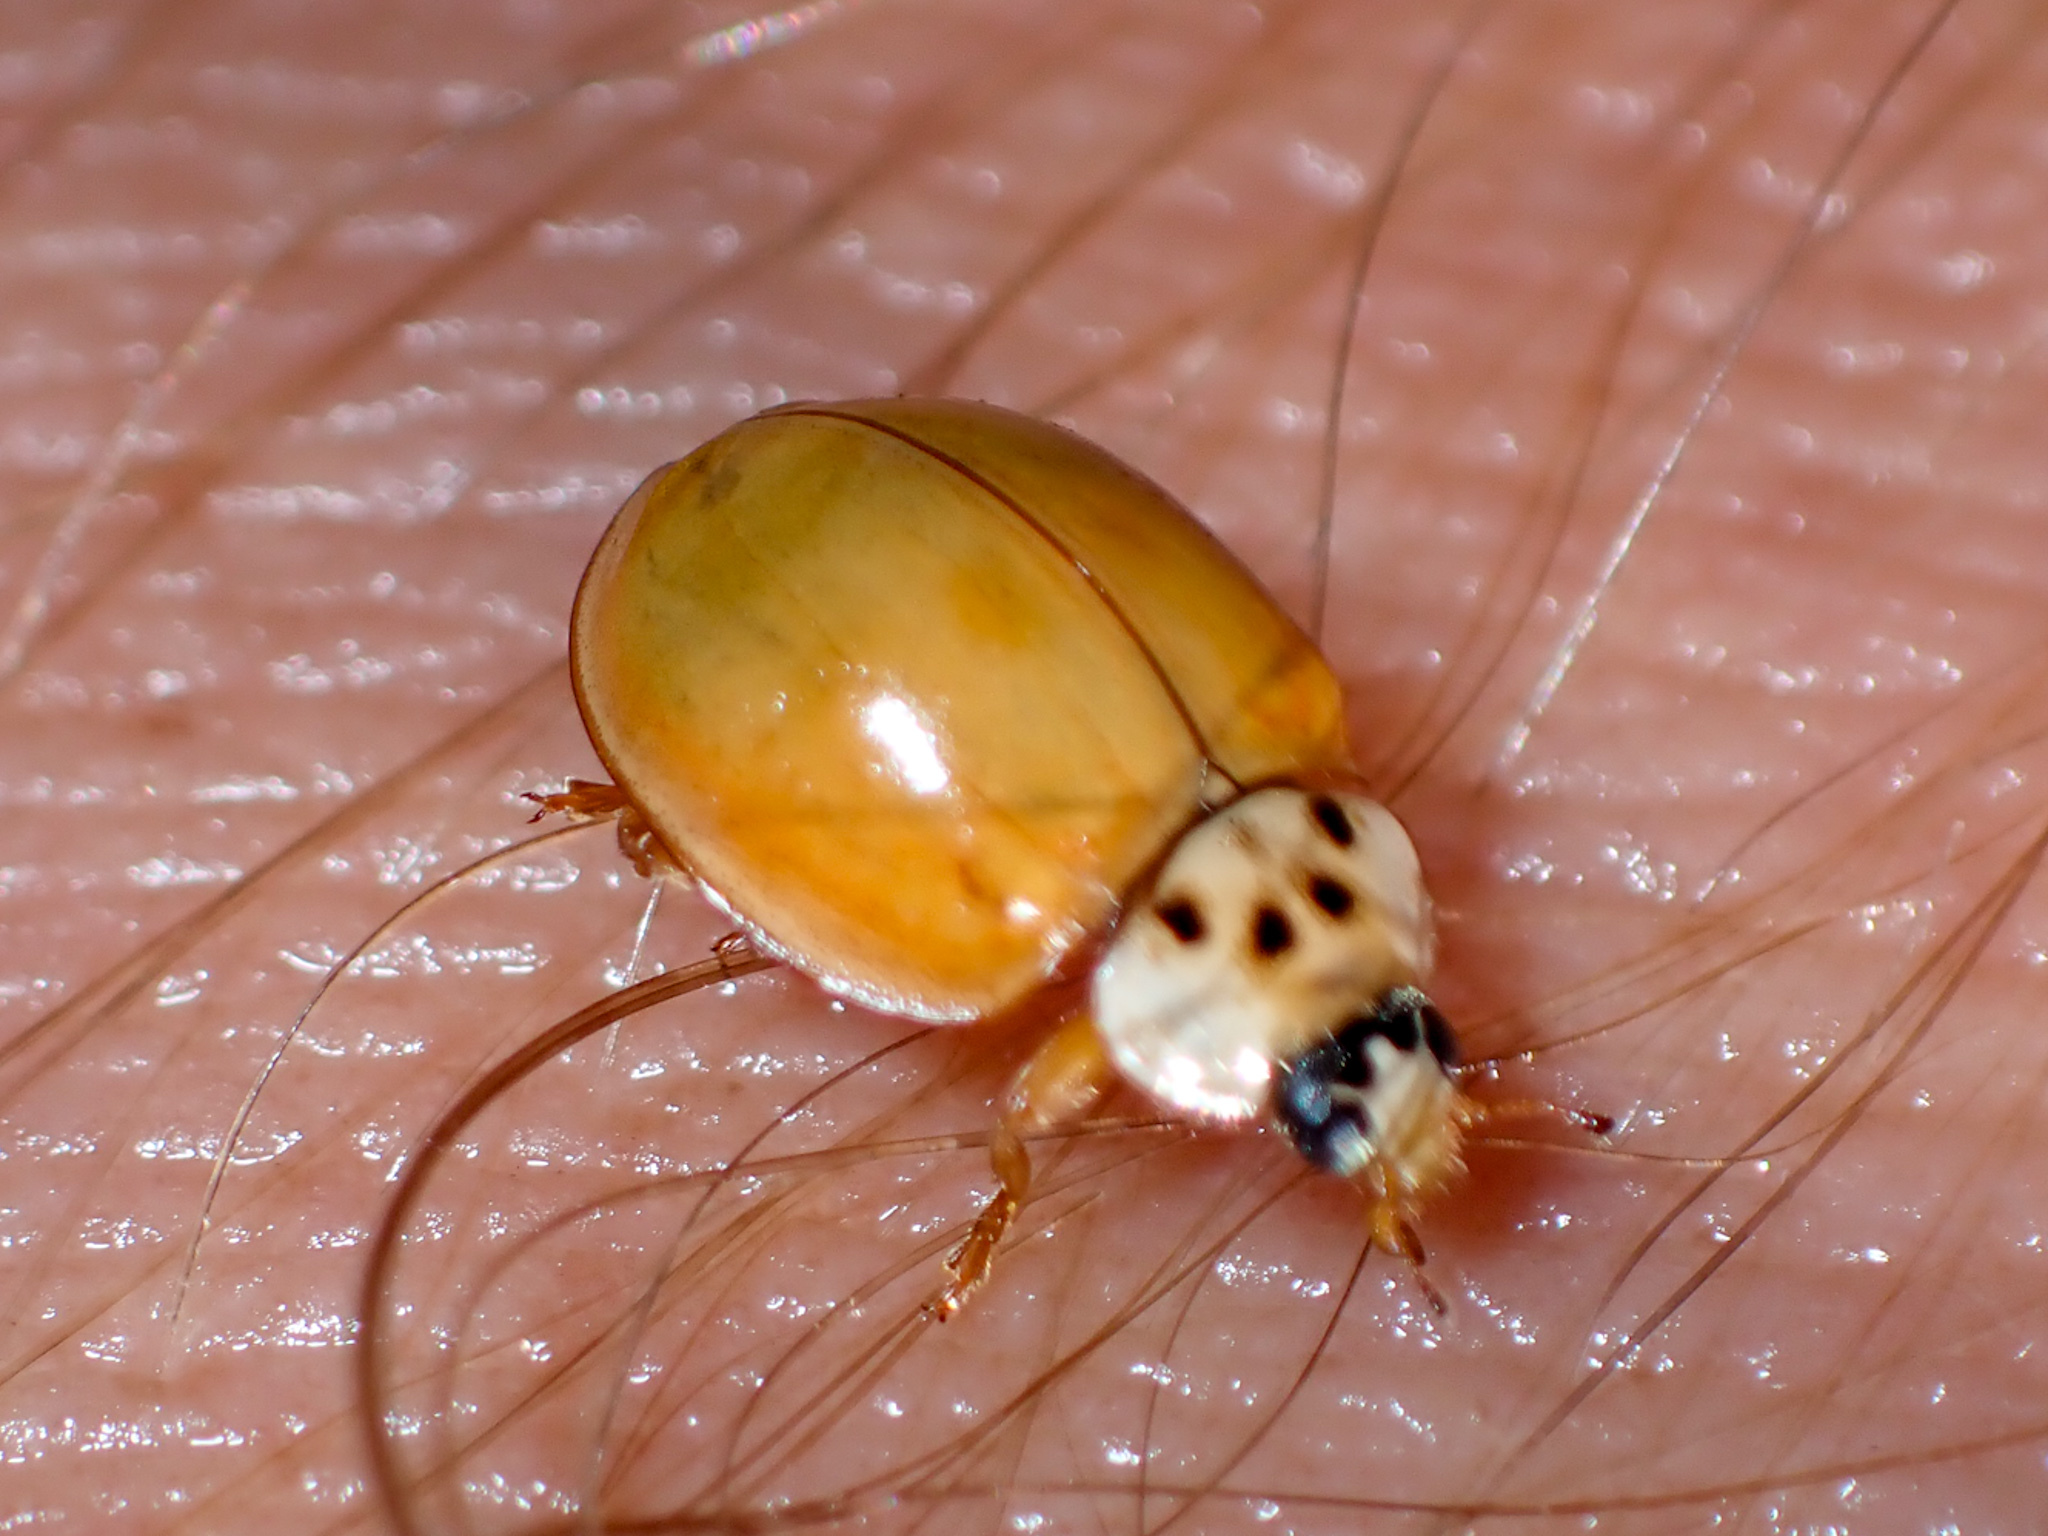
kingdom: Animalia
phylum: Arthropoda
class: Insecta
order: Coleoptera
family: Coccinellidae
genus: Harmonia
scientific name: Harmonia axyridis
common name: Harlequin ladybird
